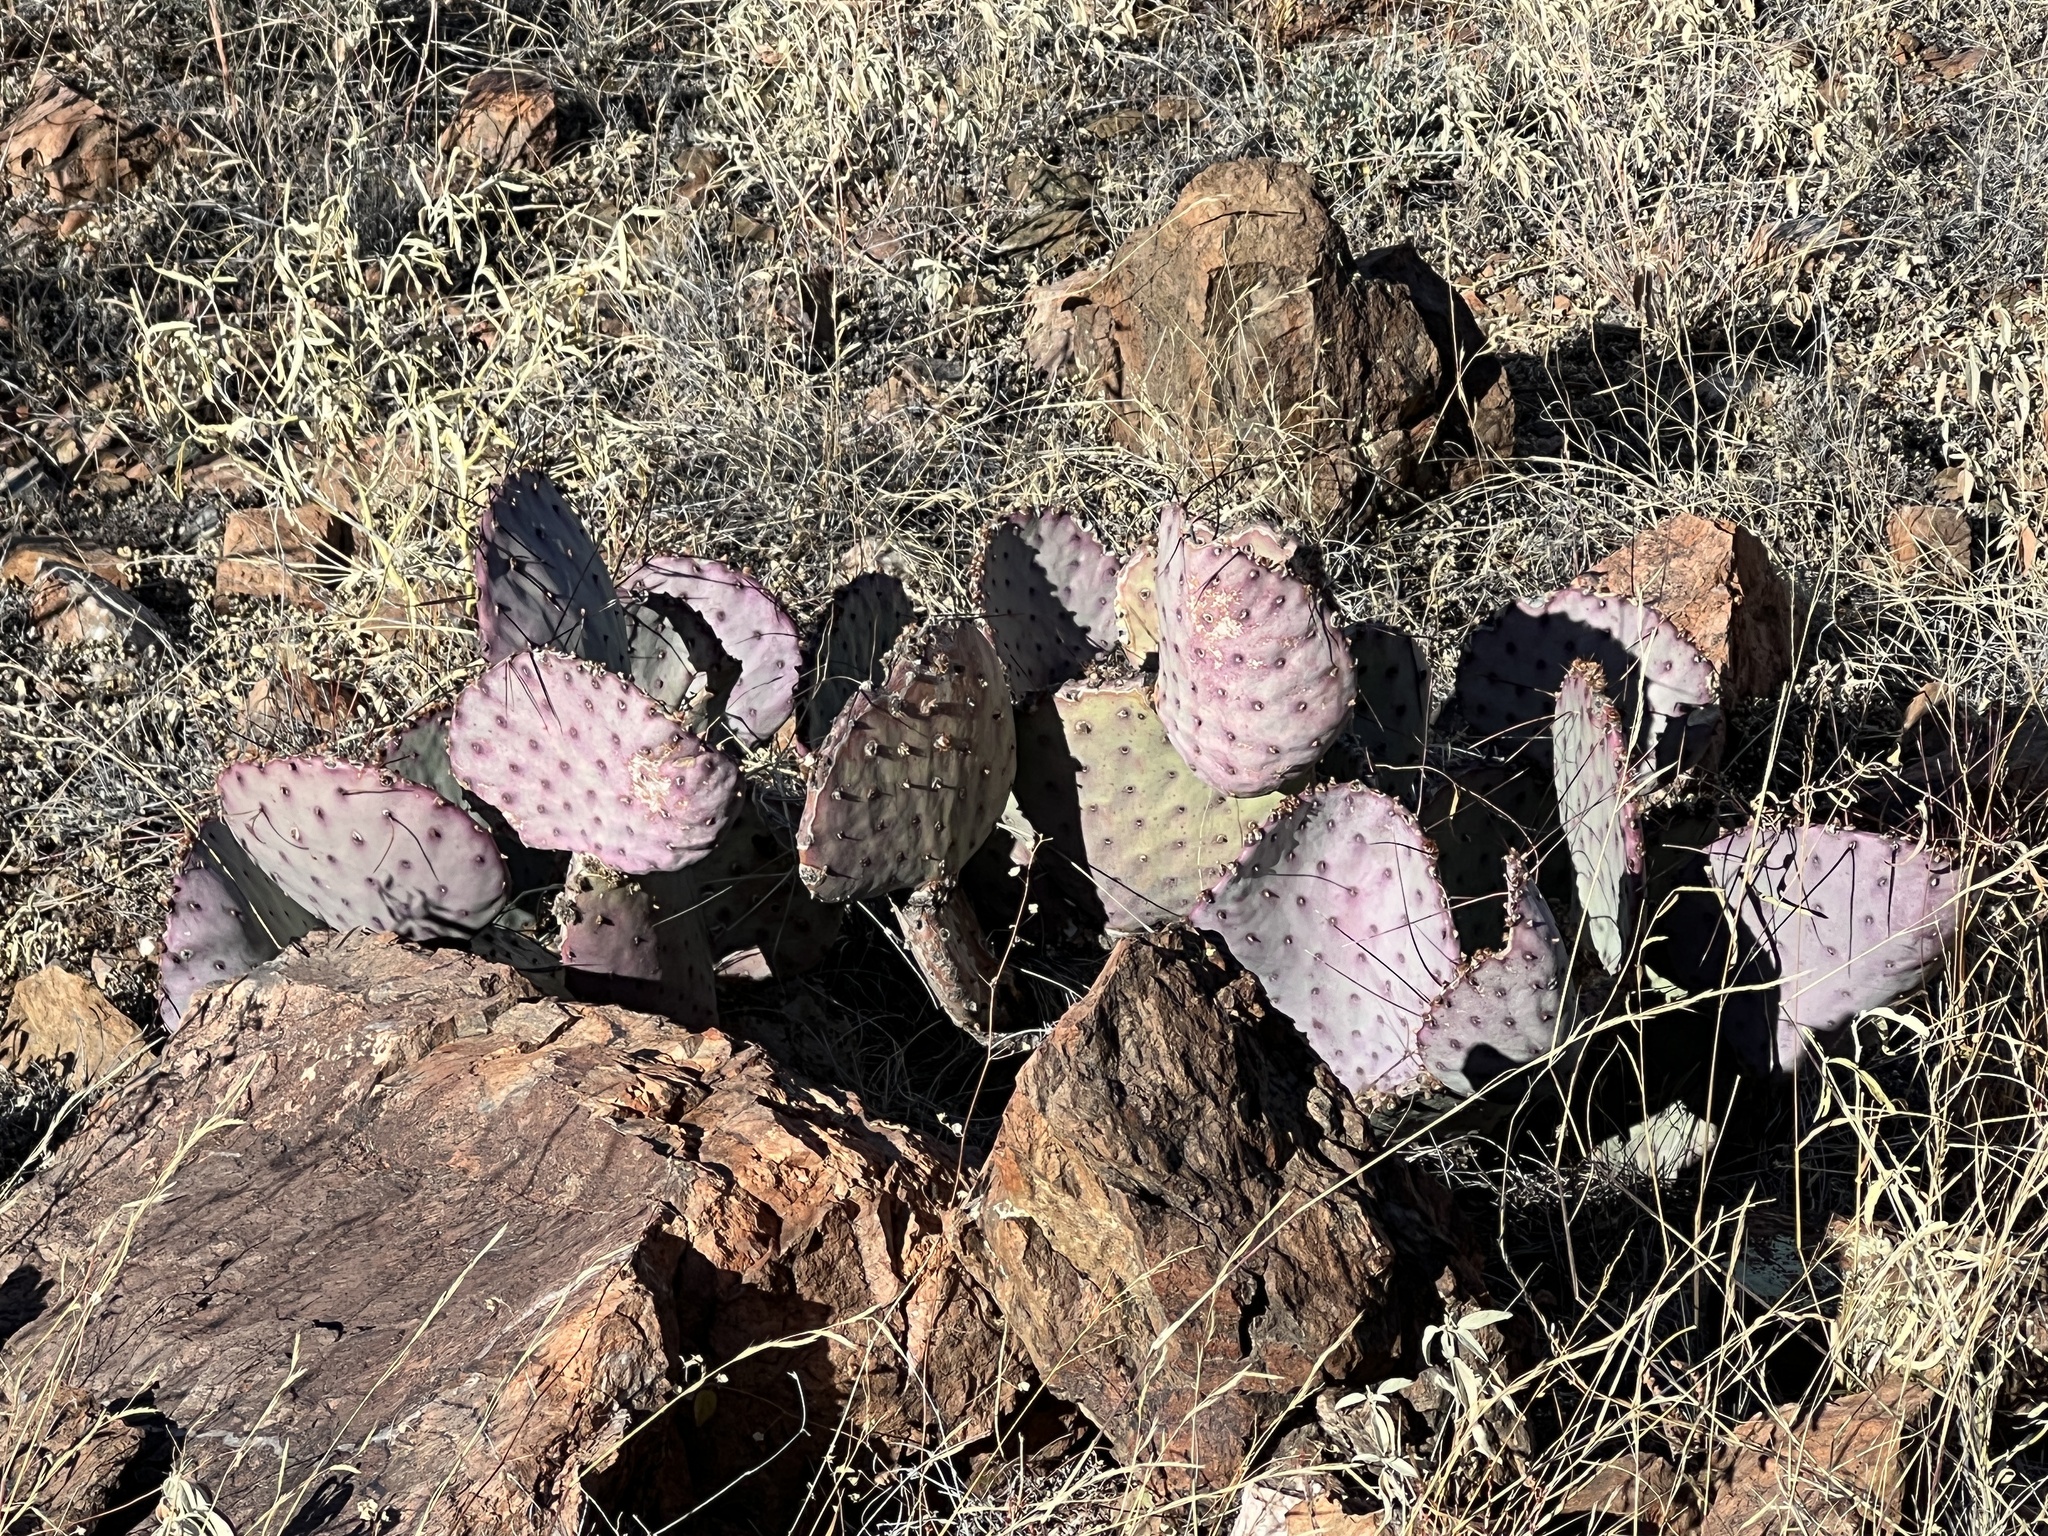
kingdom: Plantae
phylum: Tracheophyta
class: Magnoliopsida
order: Caryophyllales
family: Cactaceae
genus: Opuntia
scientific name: Opuntia phaeacantha
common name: New mexico prickly-pear
